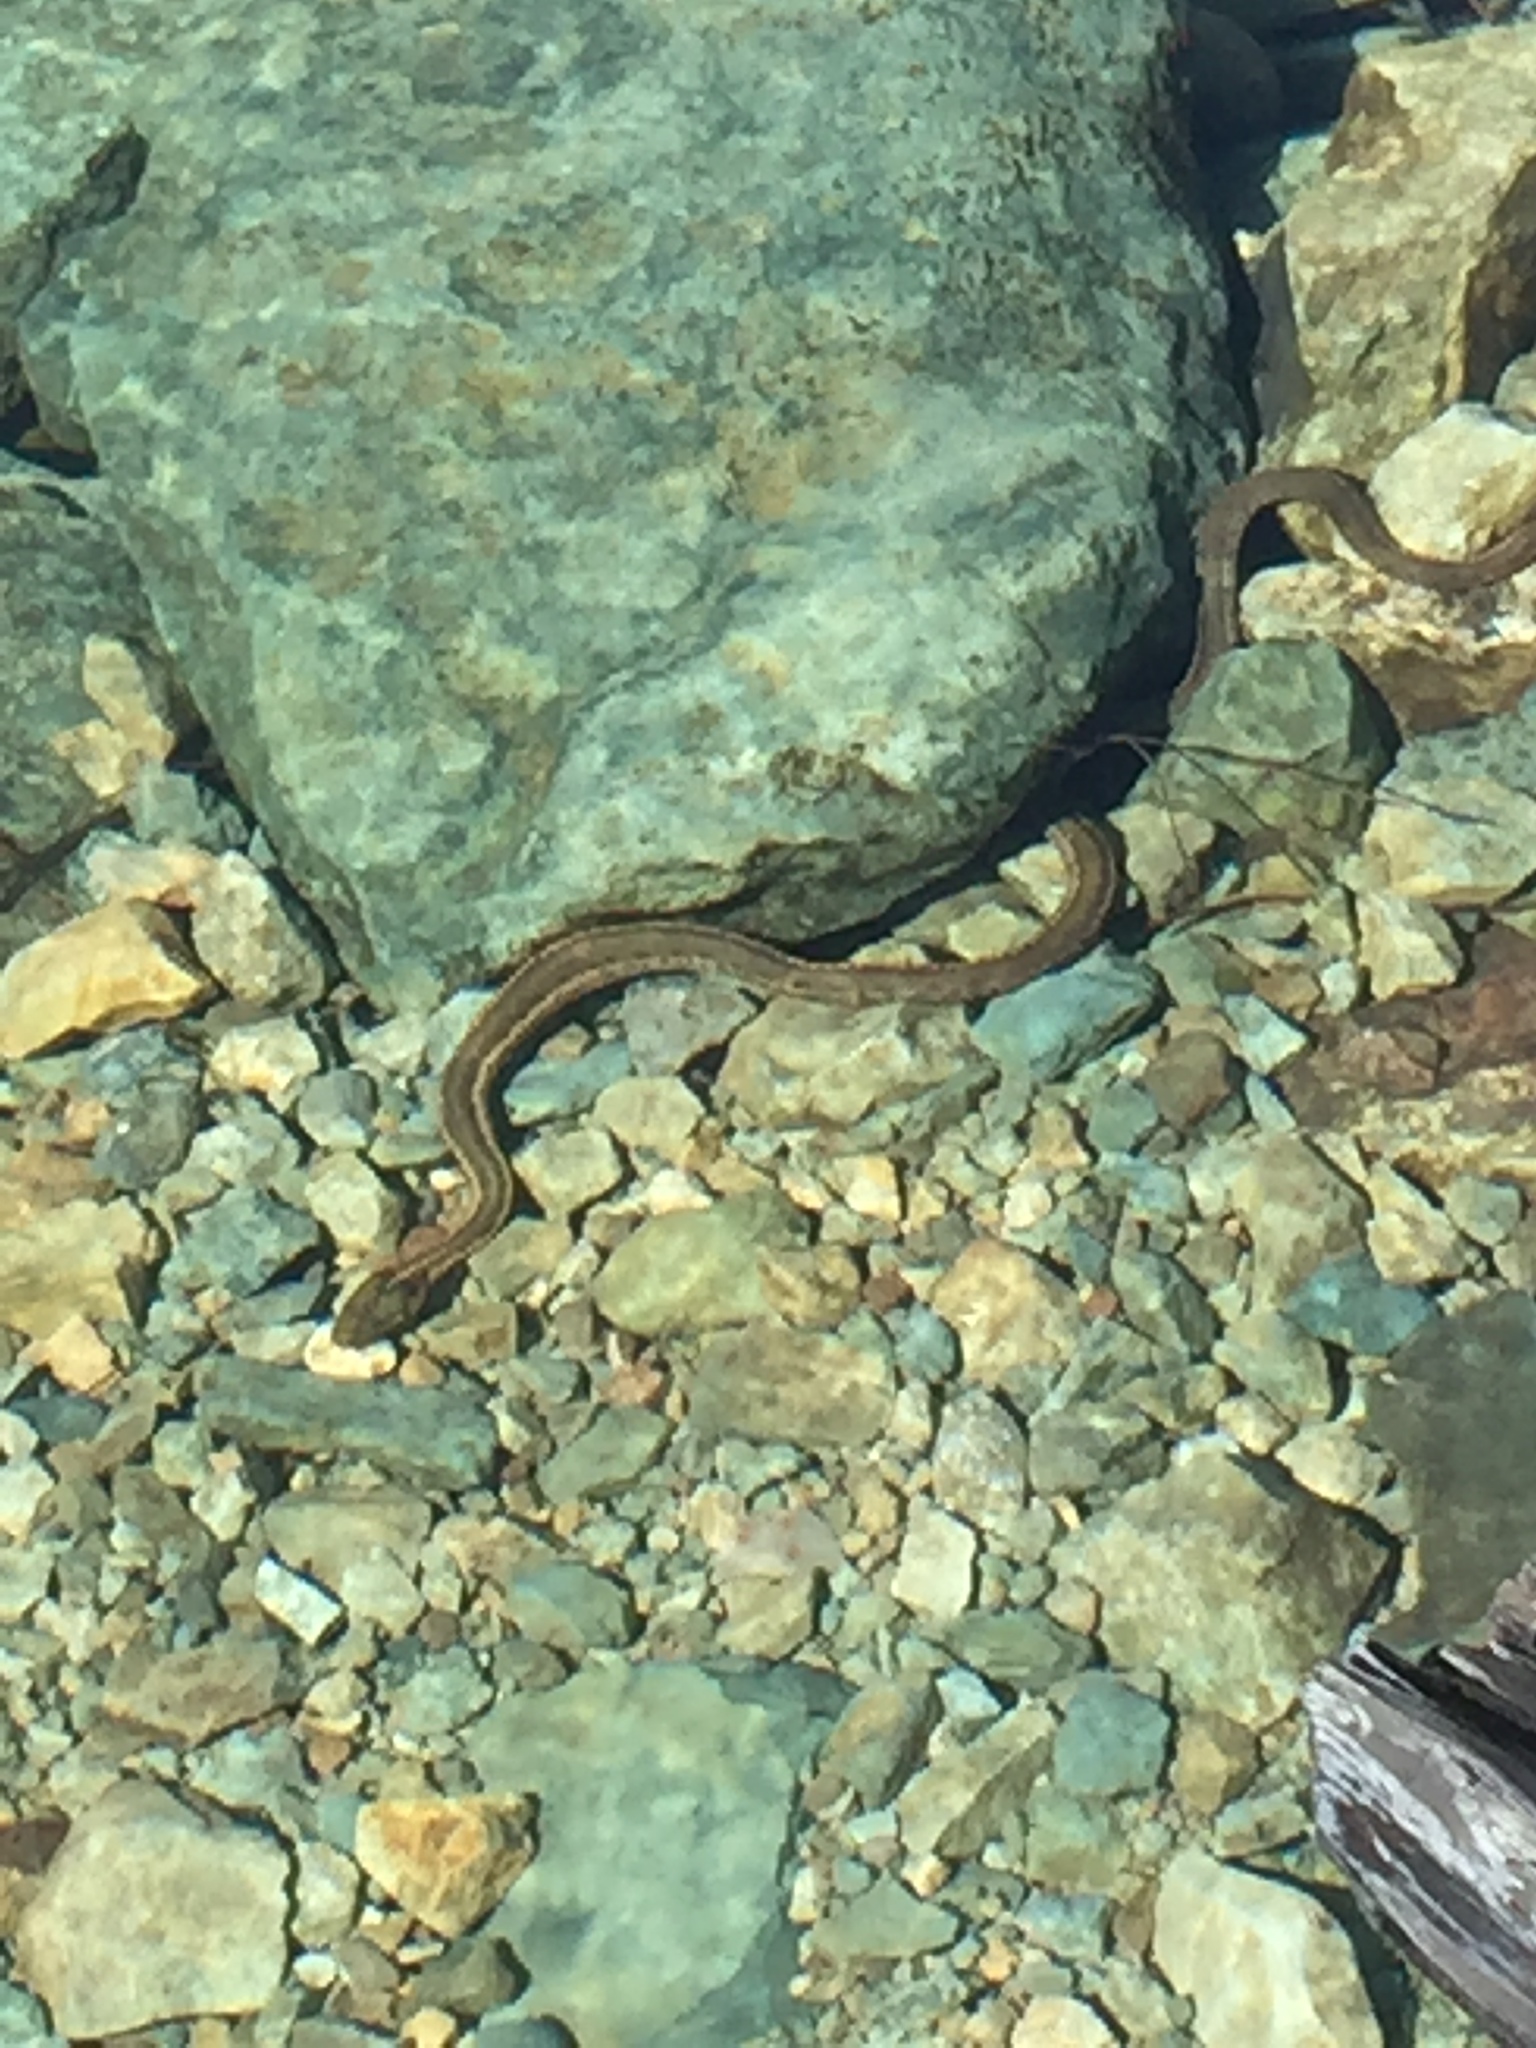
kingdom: Animalia
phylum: Chordata
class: Squamata
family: Colubridae
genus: Thamnophis
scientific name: Thamnophis couchii
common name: Western aquatic garter snake
